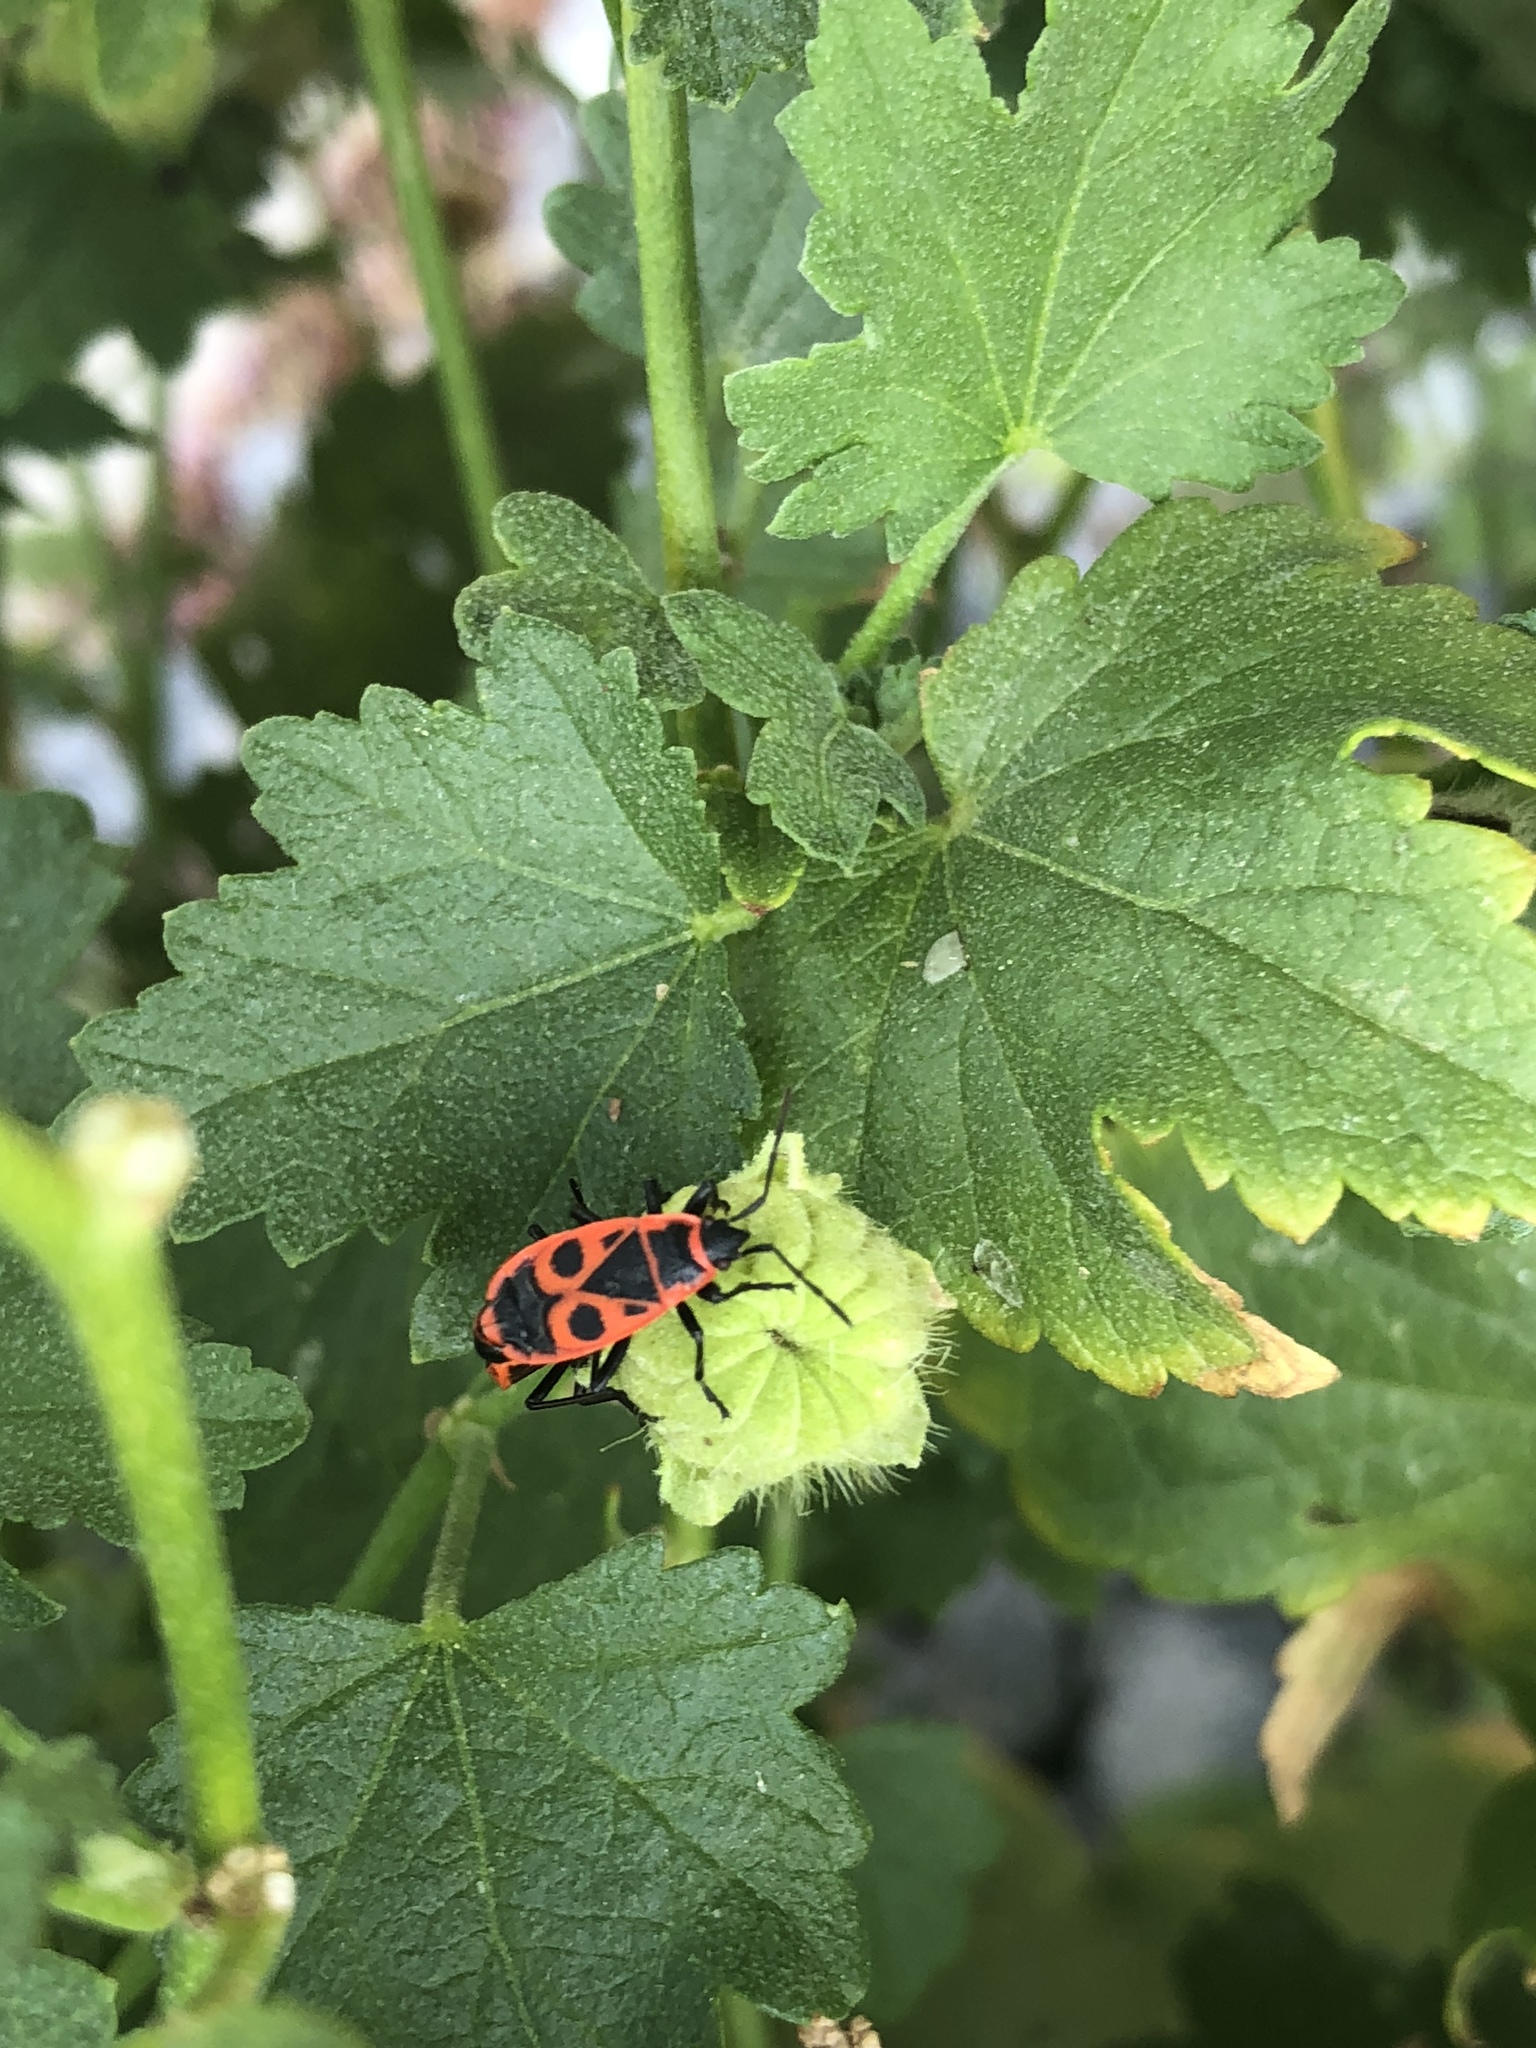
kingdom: Animalia
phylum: Arthropoda
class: Insecta
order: Hemiptera
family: Pyrrhocoridae
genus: Pyrrhocoris
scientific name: Pyrrhocoris apterus
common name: Firebug
